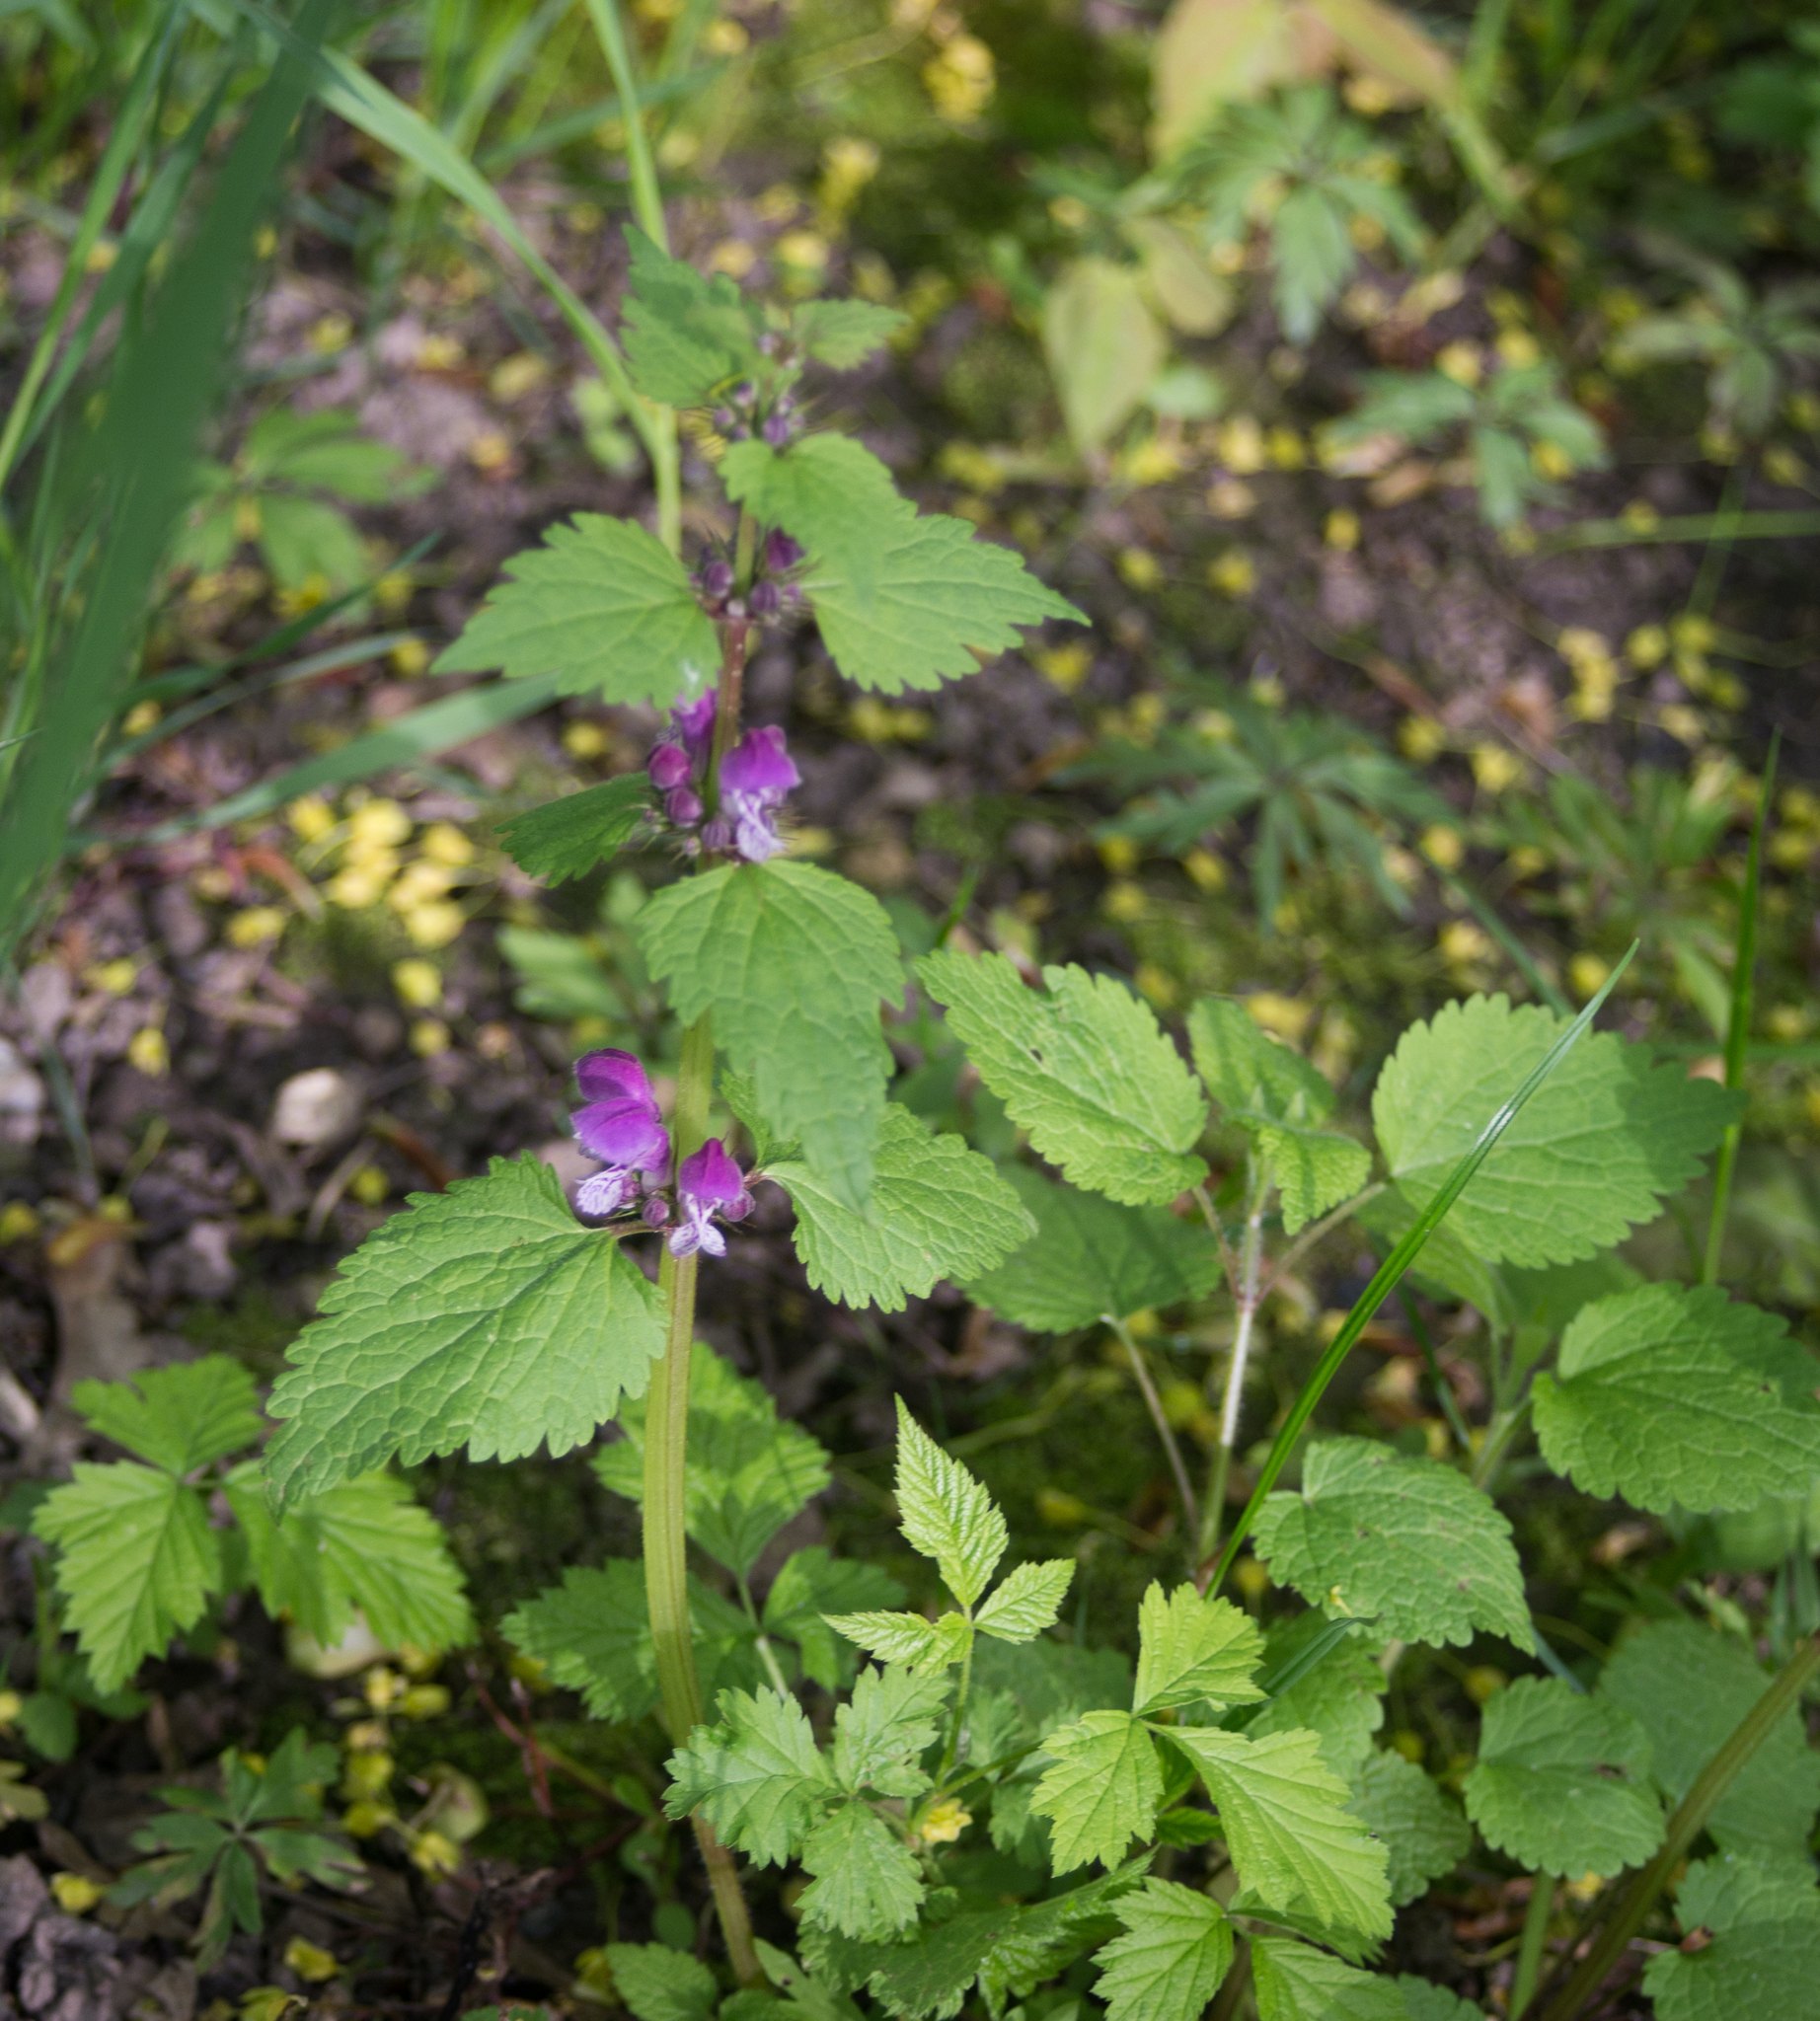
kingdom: Plantae
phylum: Tracheophyta
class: Magnoliopsida
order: Lamiales
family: Lamiaceae
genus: Lamium
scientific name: Lamium maculatum
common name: Spotted dead-nettle
